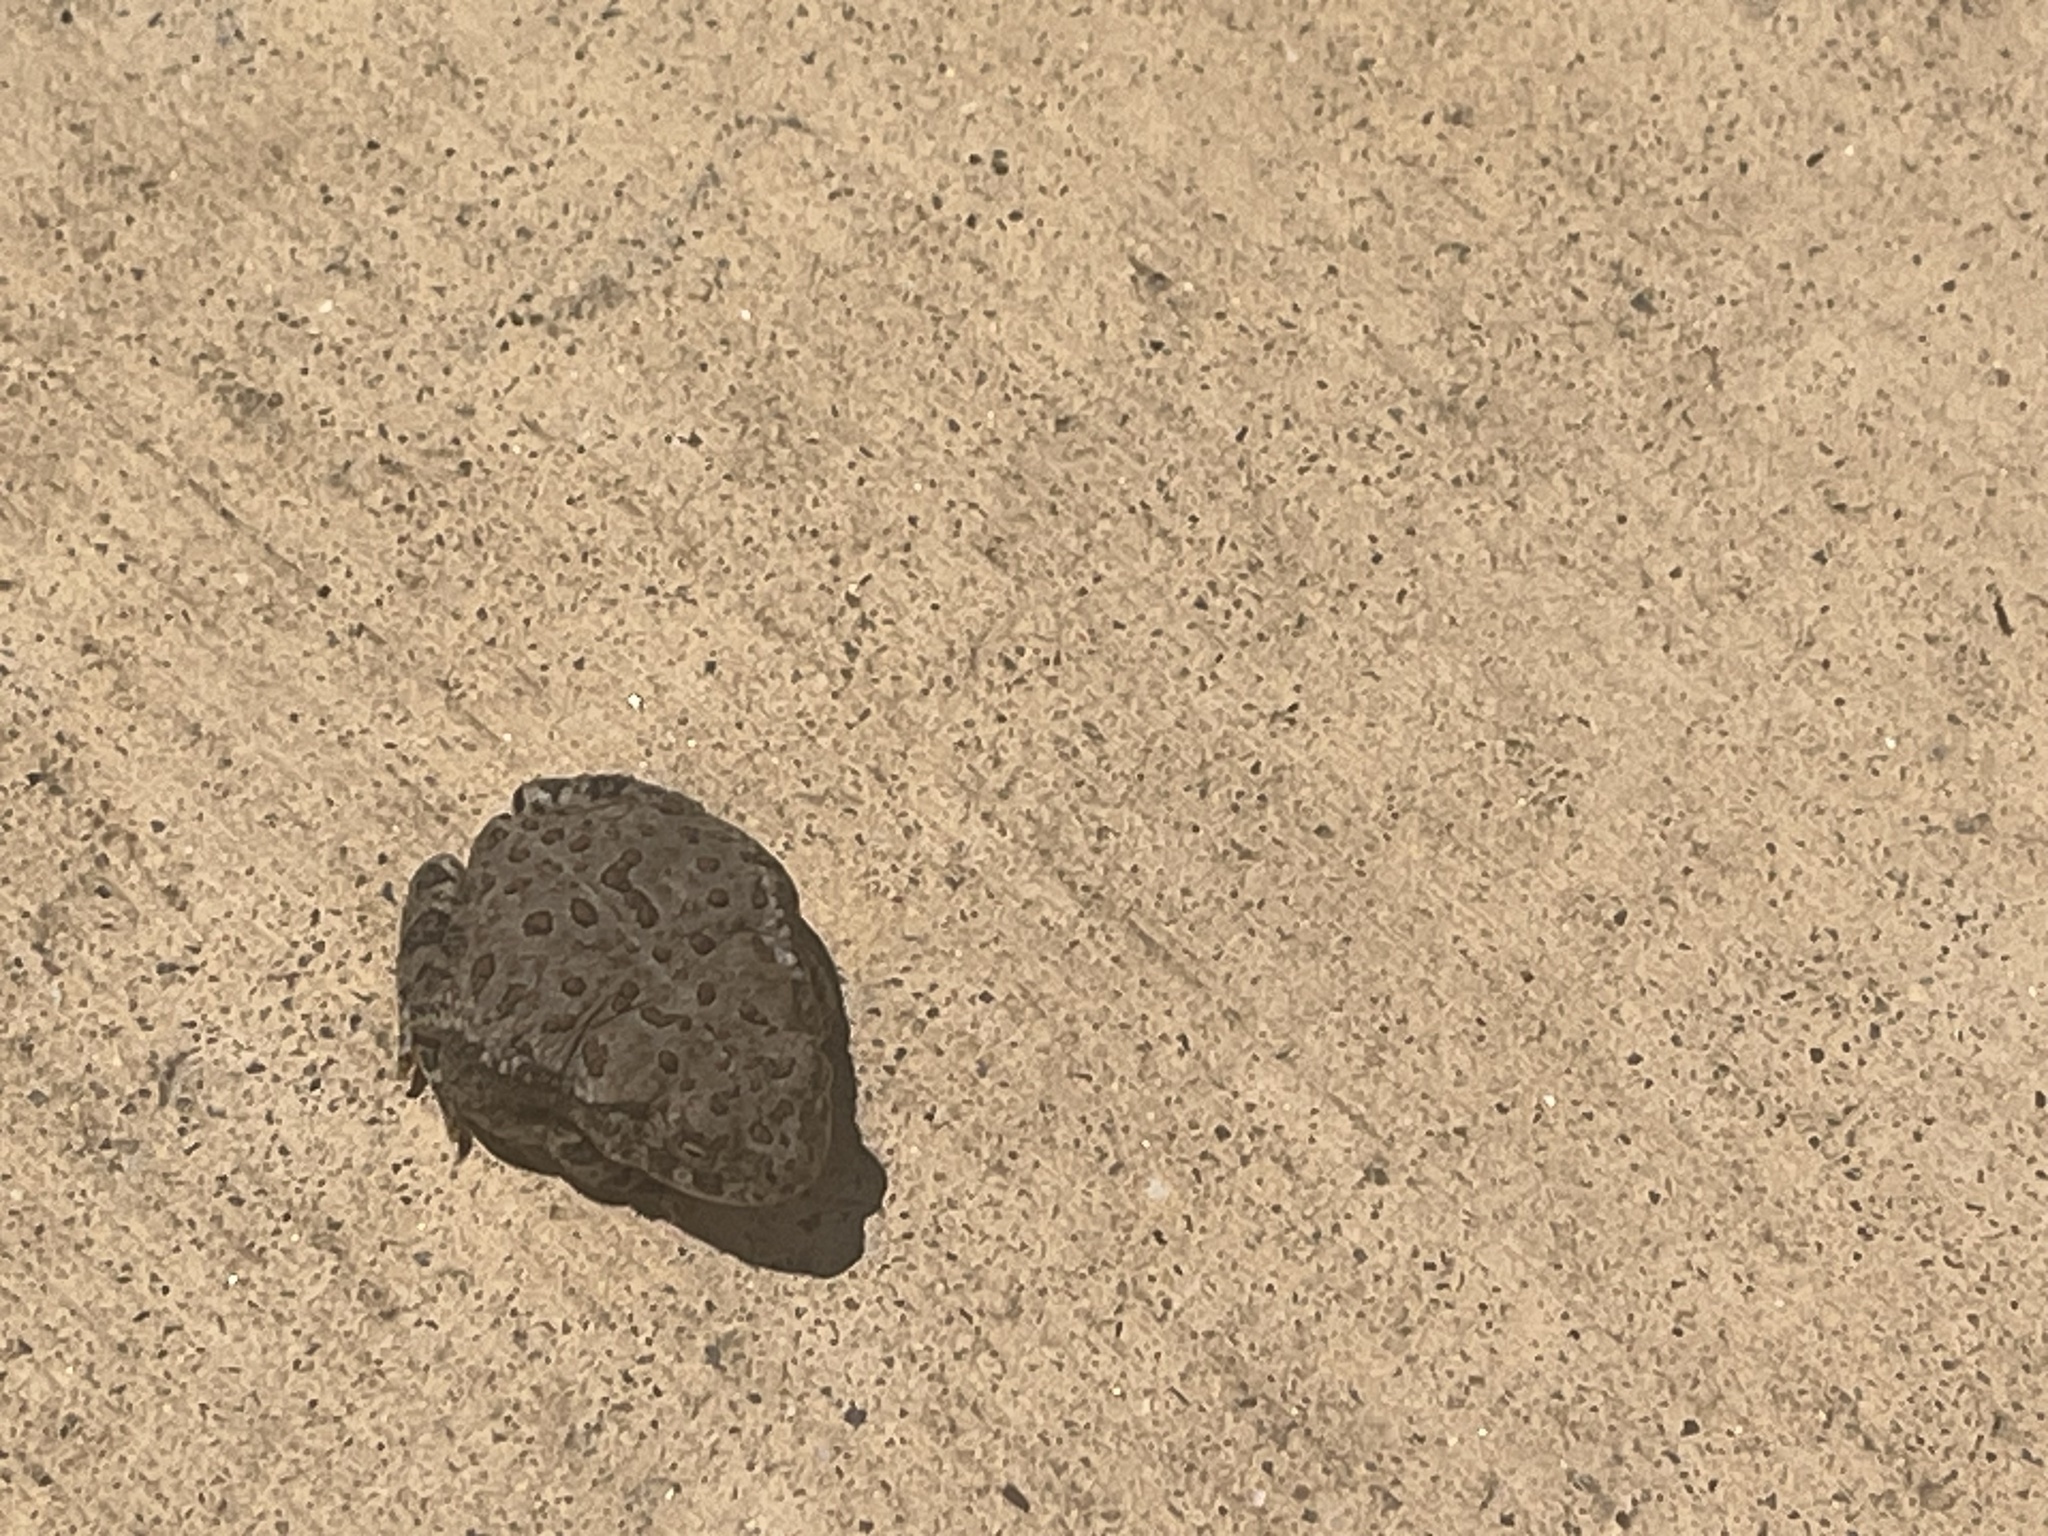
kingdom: Animalia
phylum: Chordata
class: Amphibia
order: Anura
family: Bufonidae
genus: Anaxyrus
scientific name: Anaxyrus woodhousii
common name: Woodhouse's toad
